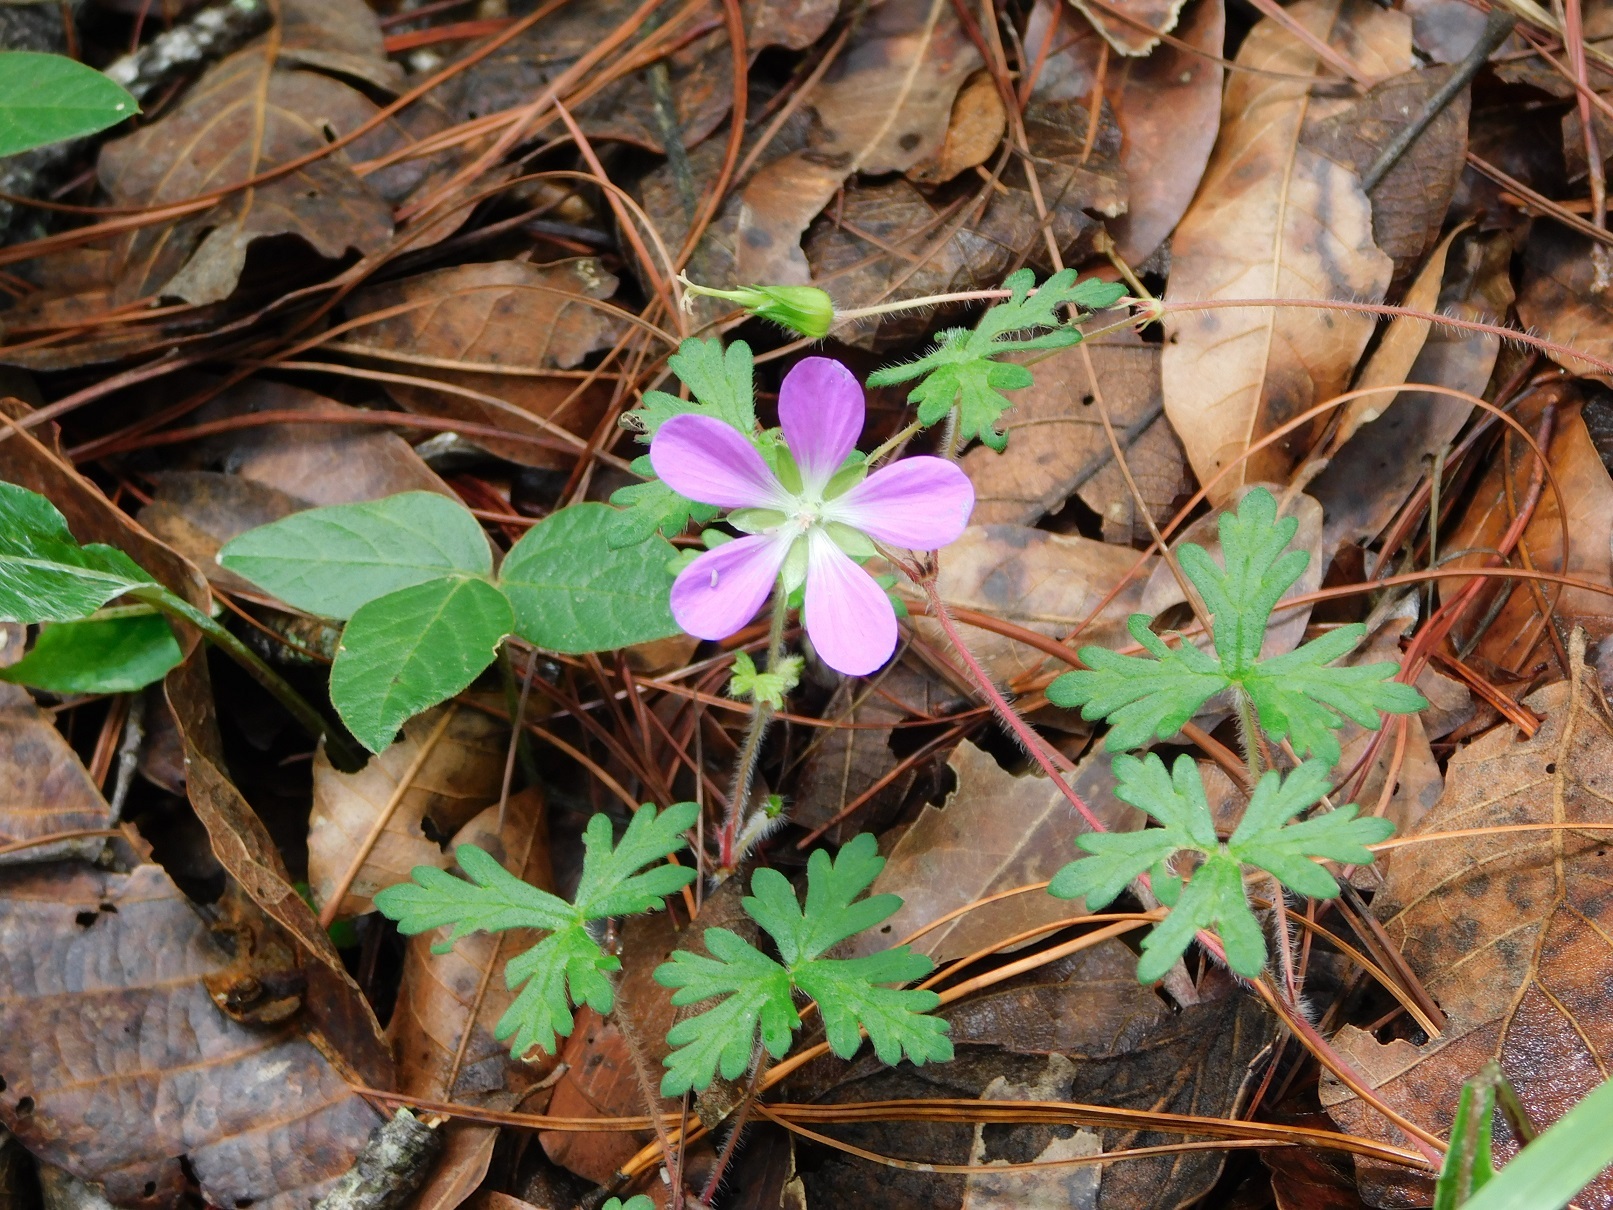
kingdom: Plantae
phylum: Tracheophyta
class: Magnoliopsida
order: Geraniales
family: Geraniaceae
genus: Geranium
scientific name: Geranium goldmanii
